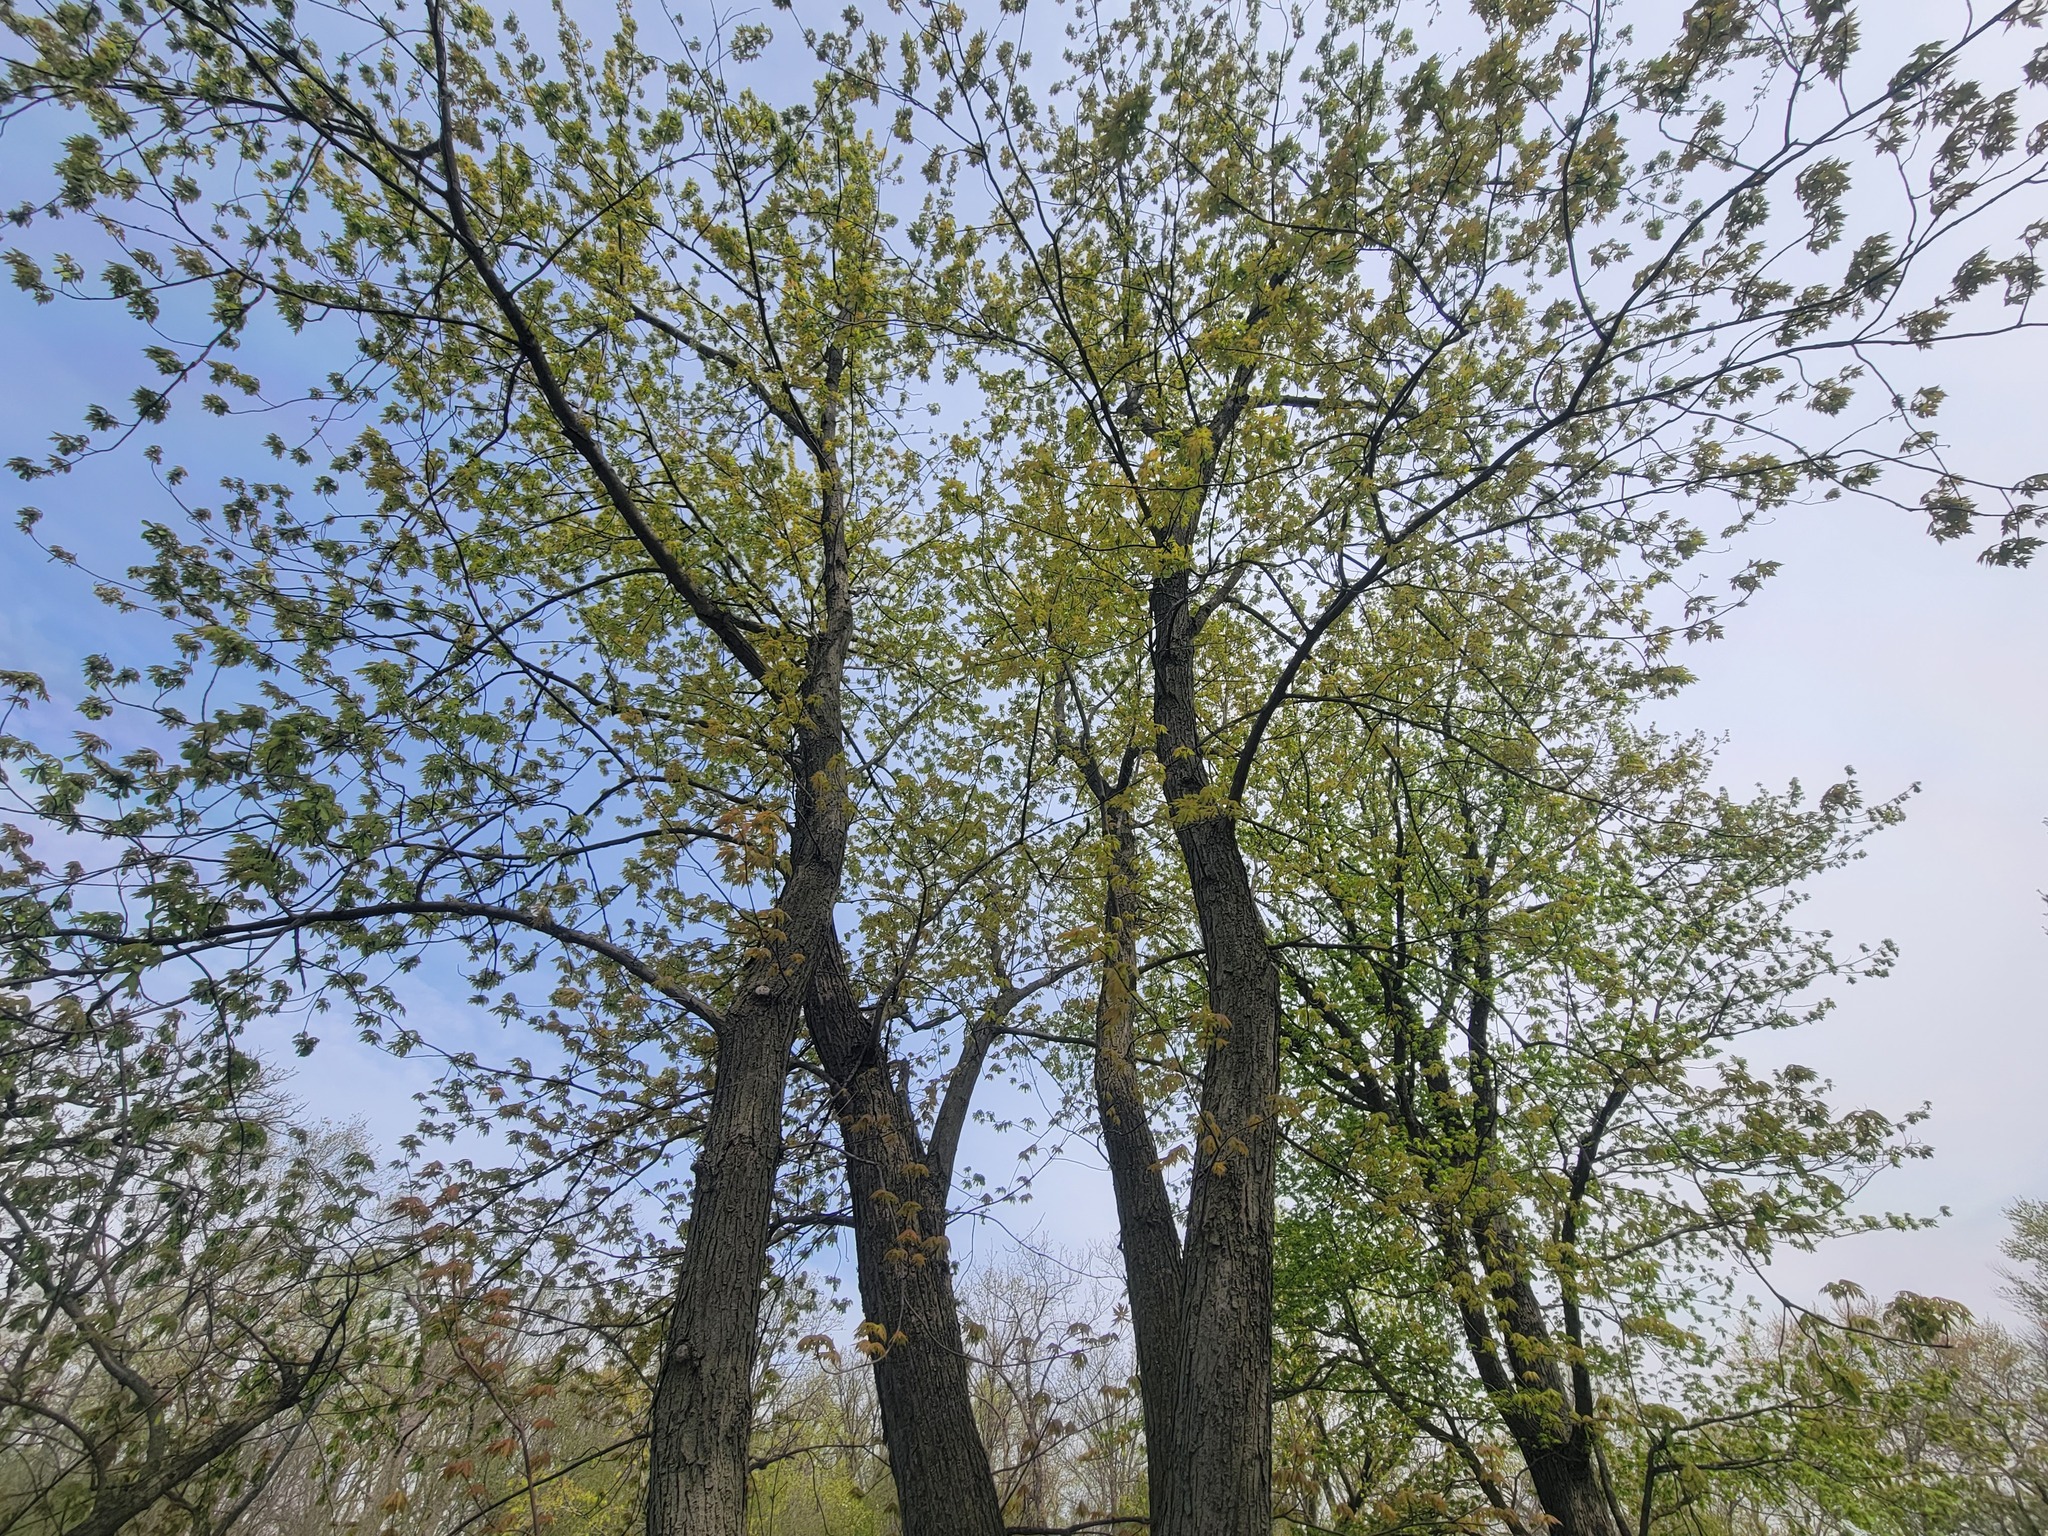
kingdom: Plantae
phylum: Tracheophyta
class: Magnoliopsida
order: Sapindales
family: Sapindaceae
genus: Acer
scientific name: Acer saccharinum
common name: Silver maple
